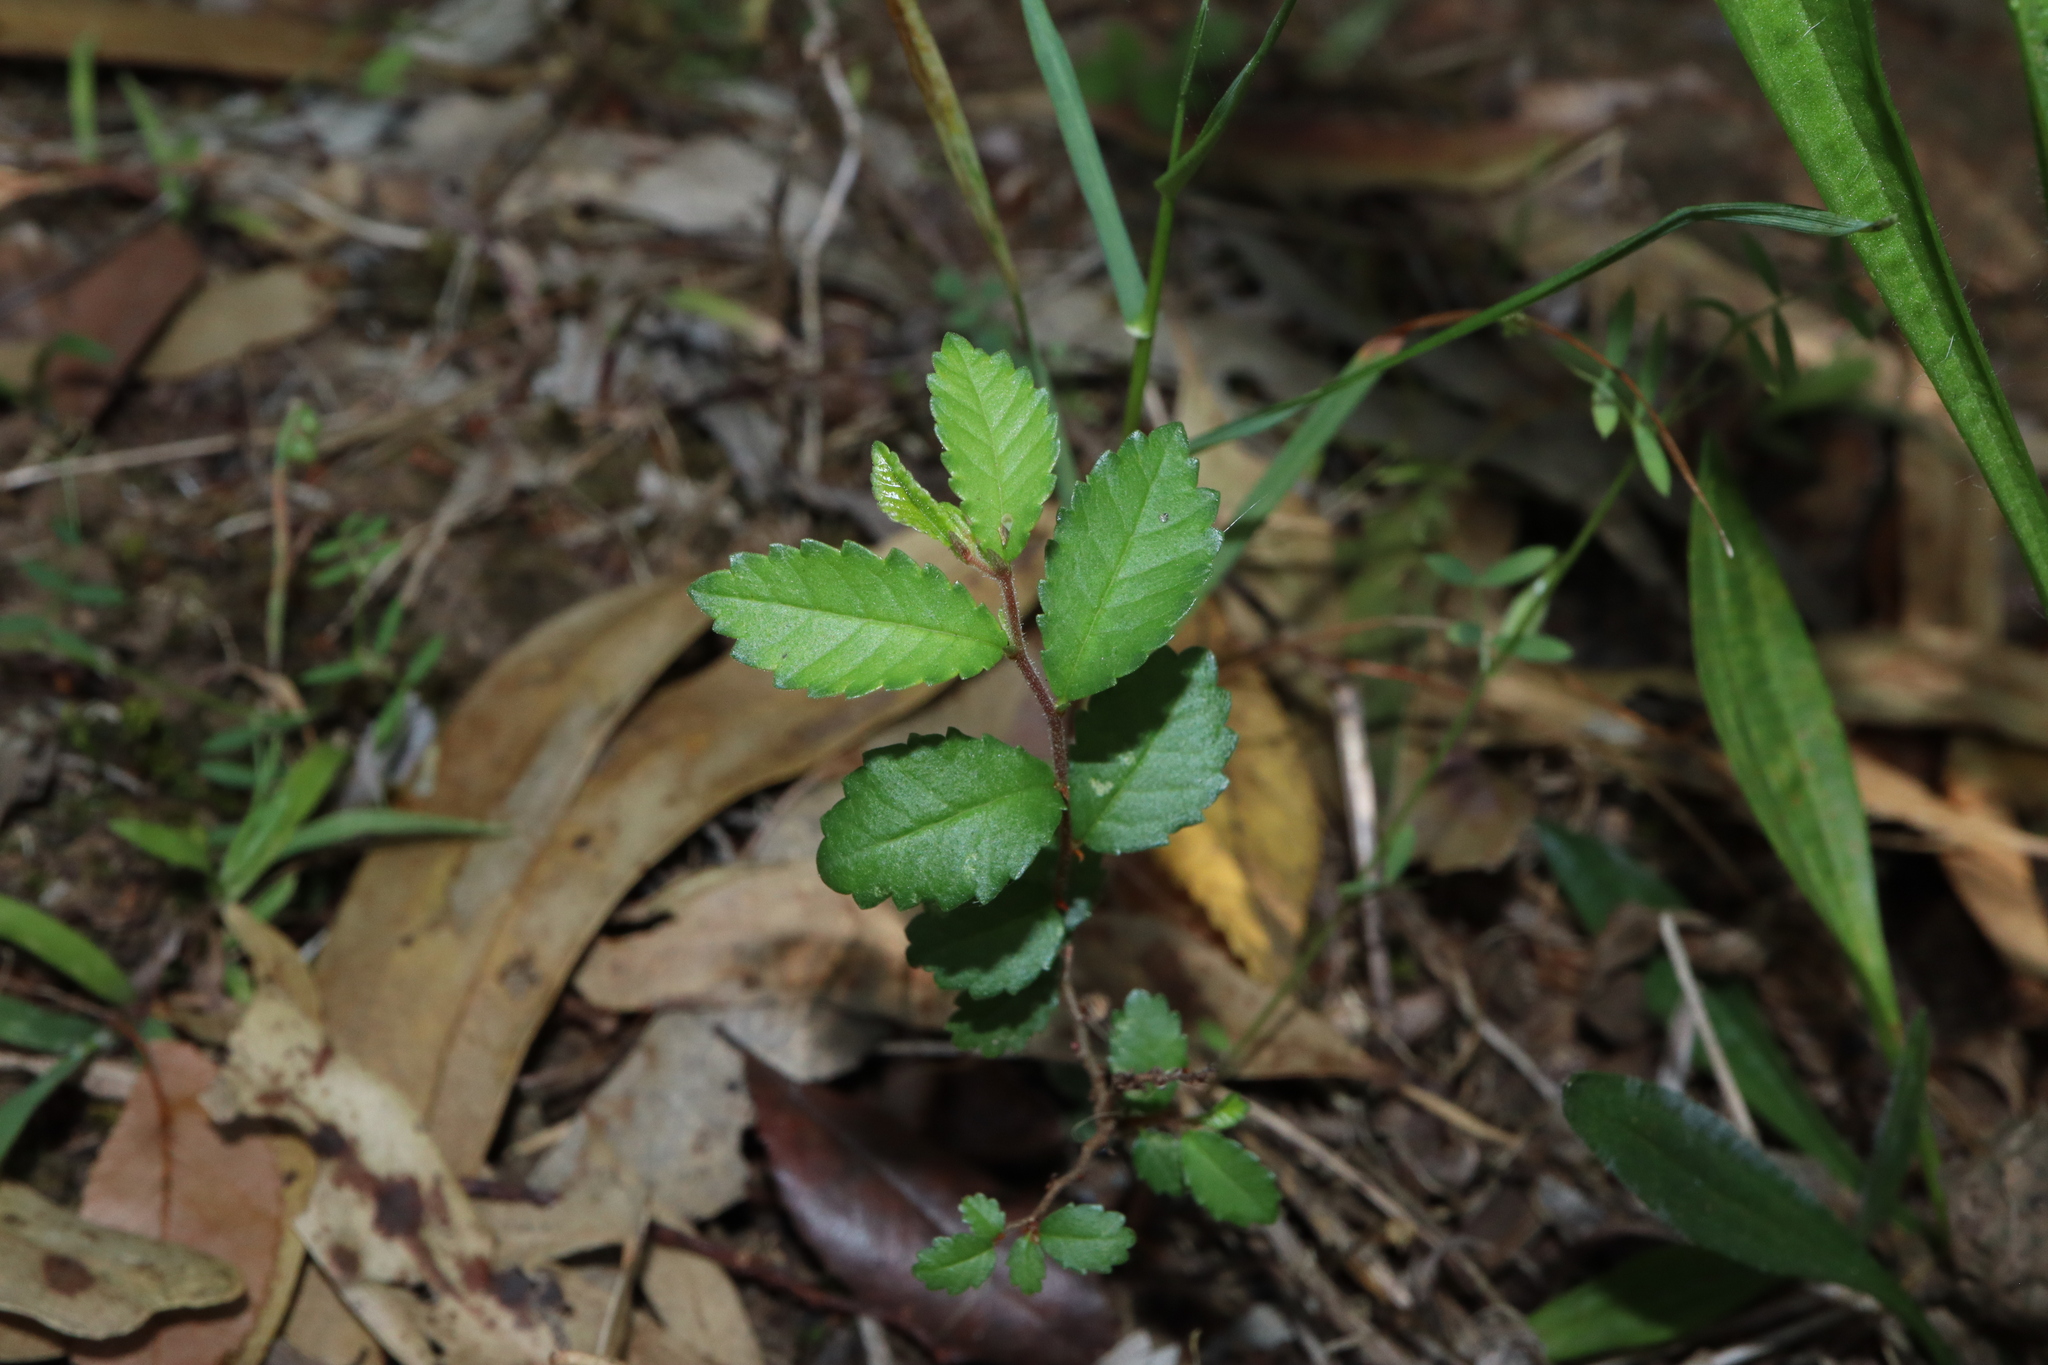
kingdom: Plantae
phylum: Tracheophyta
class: Magnoliopsida
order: Rosales
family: Ulmaceae
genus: Ulmus
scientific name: Ulmus parvifolia
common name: Chinese elm
